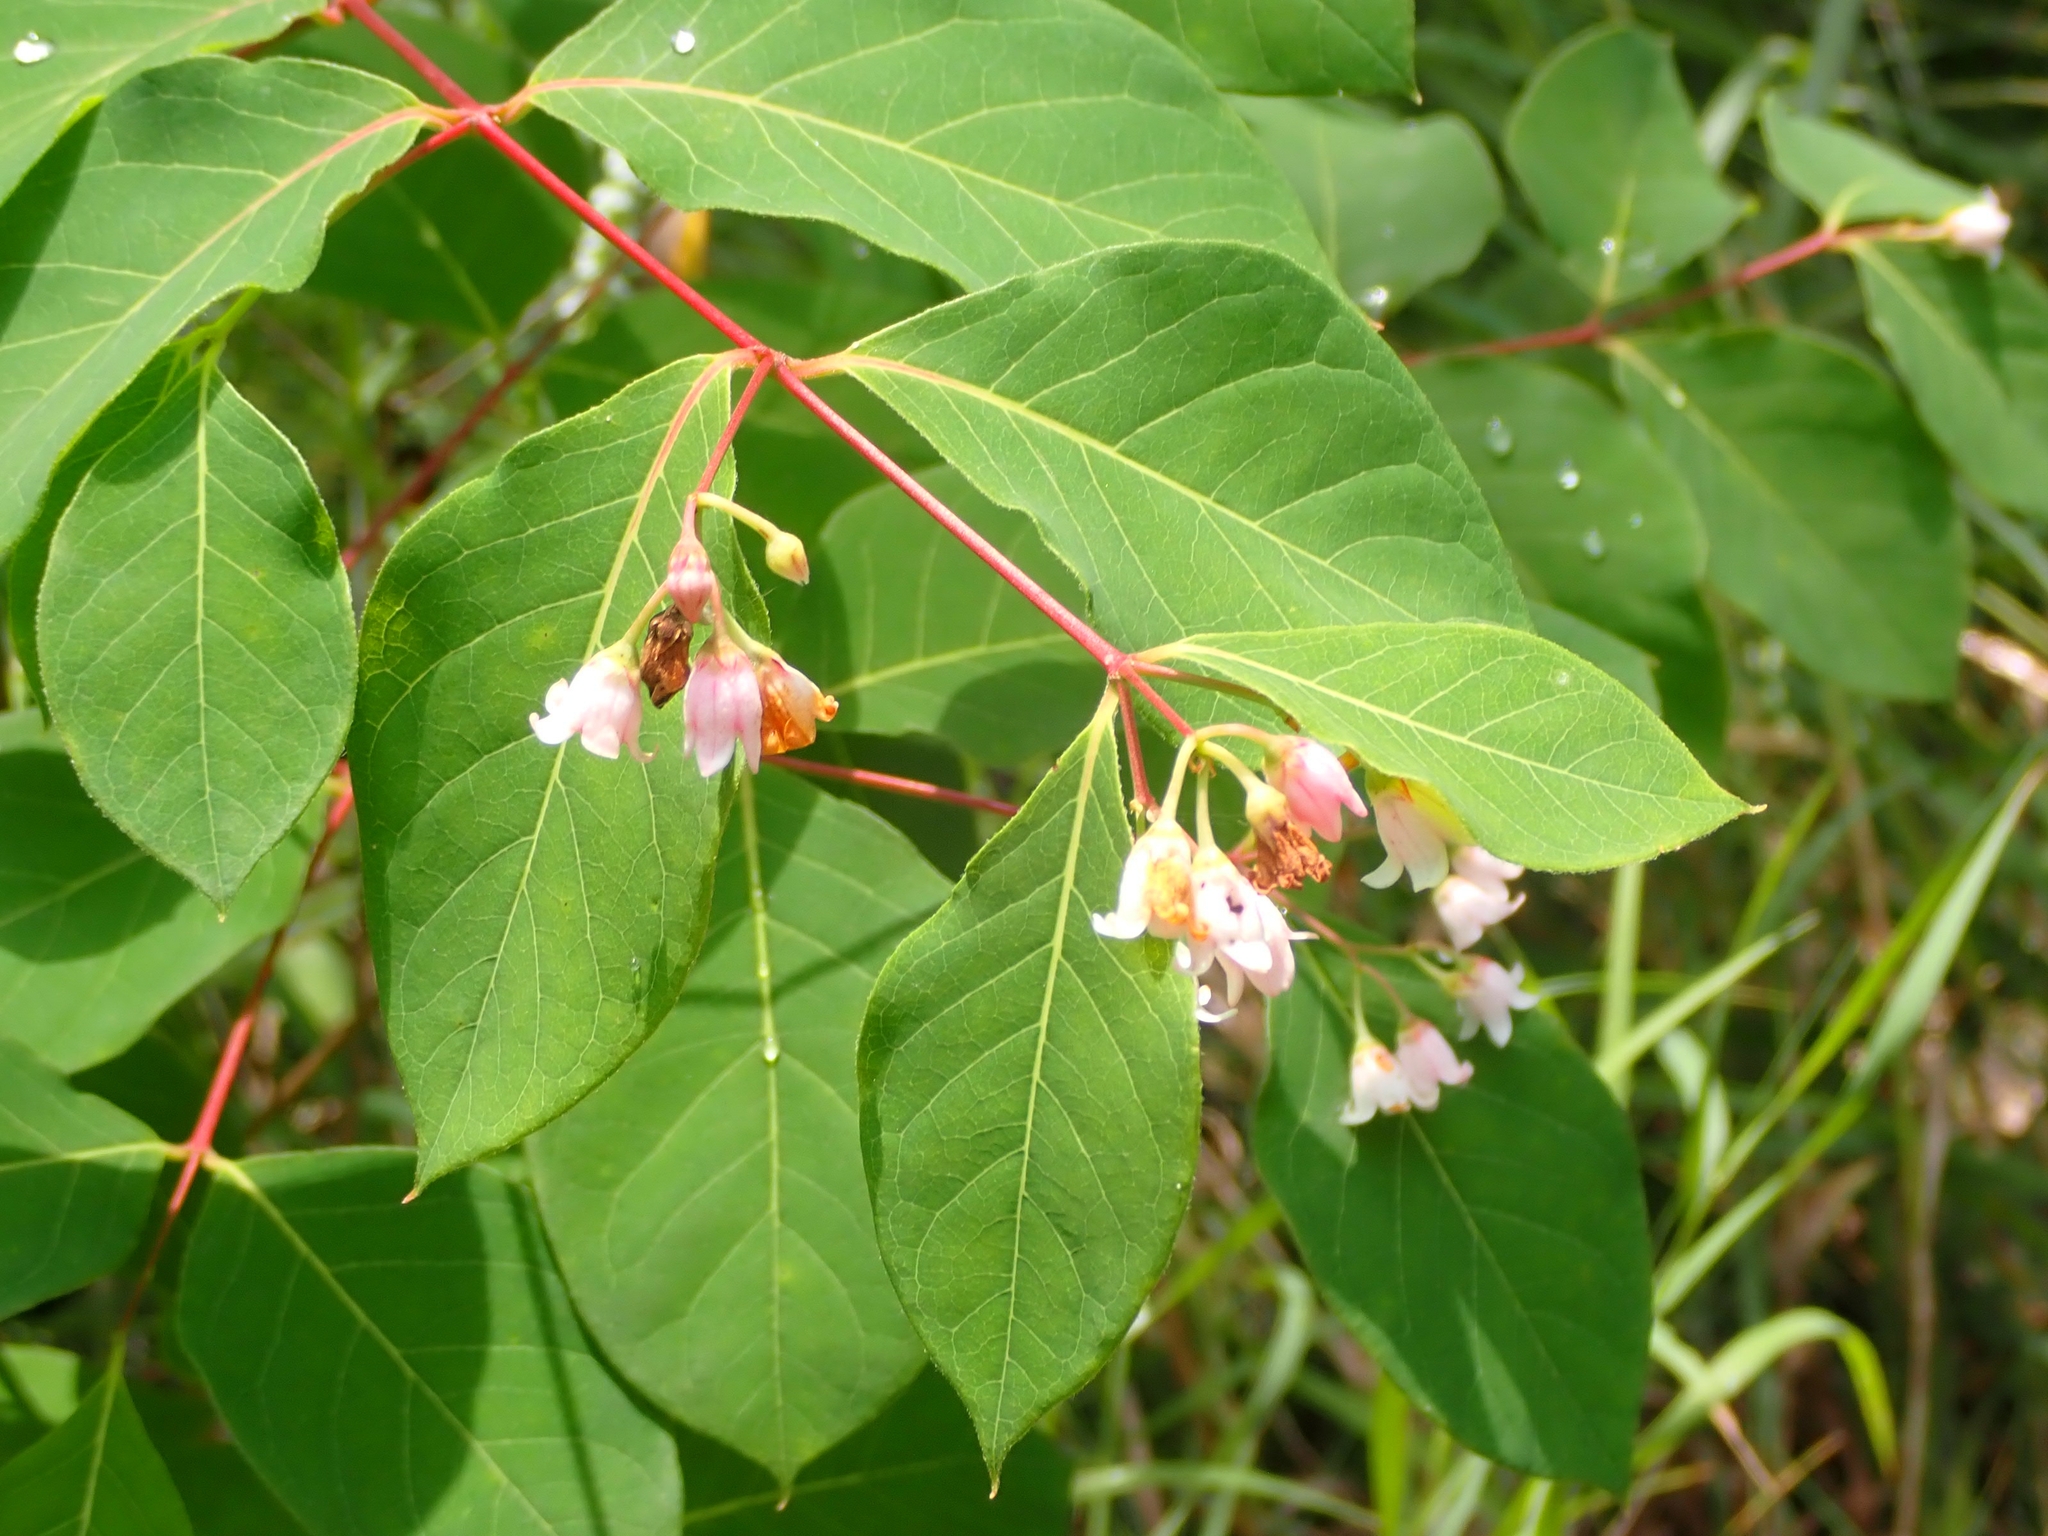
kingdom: Plantae
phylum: Tracheophyta
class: Magnoliopsida
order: Gentianales
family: Apocynaceae
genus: Apocynum
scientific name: Apocynum androsaemifolium
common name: Spreading dogbane
